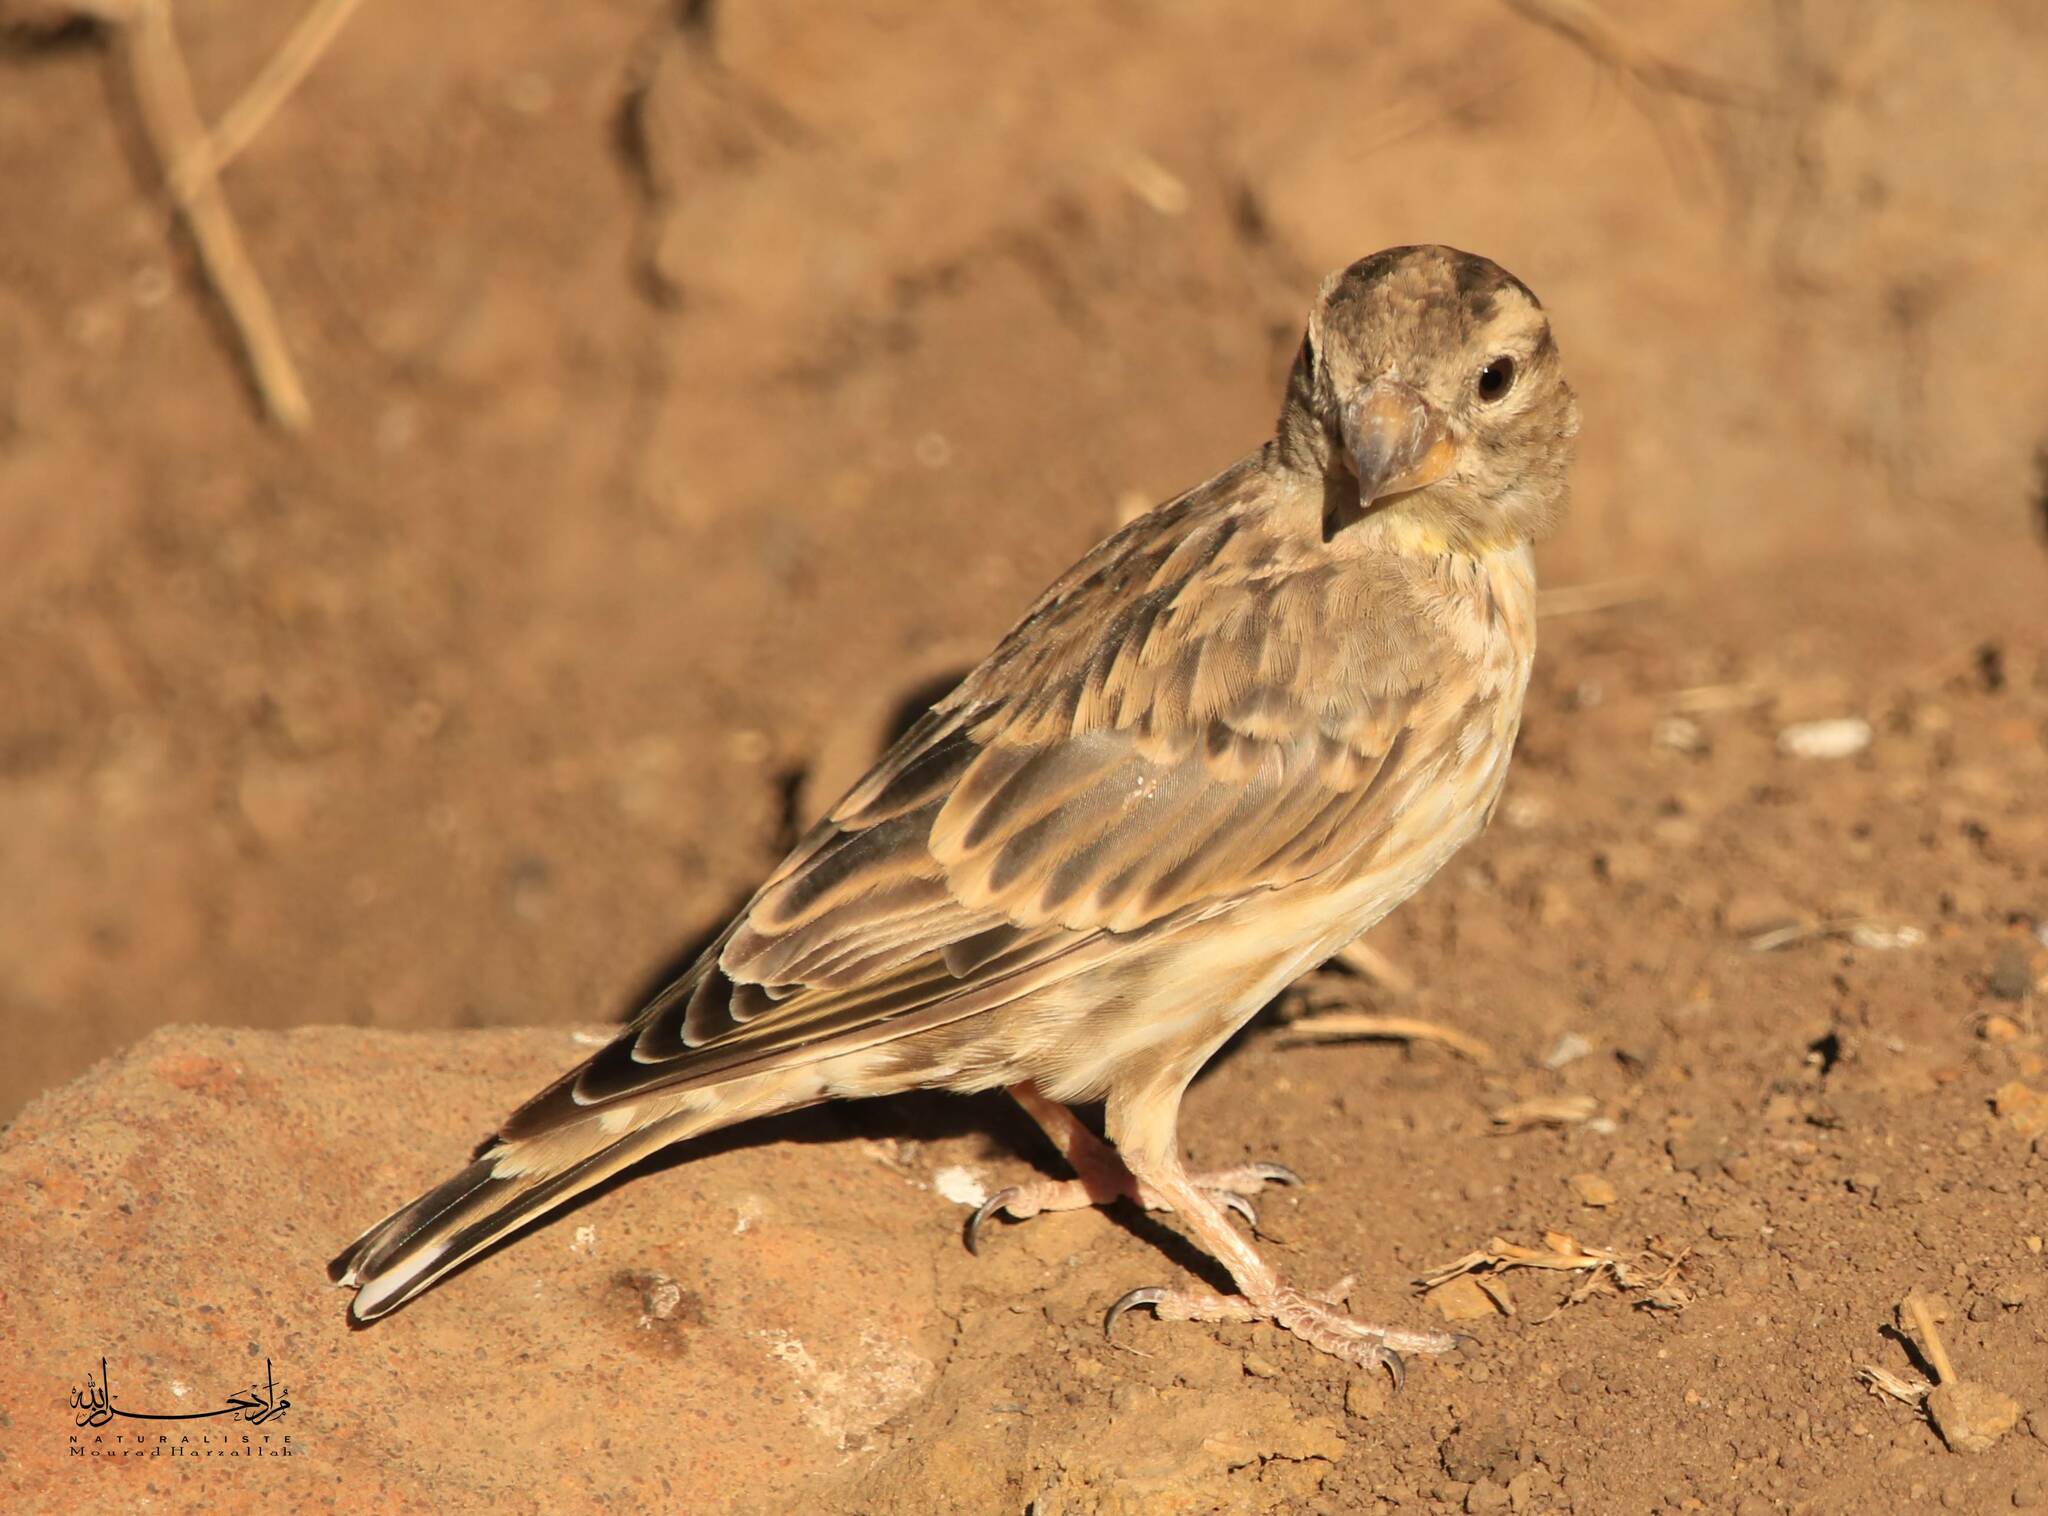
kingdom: Animalia
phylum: Chordata
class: Aves
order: Passeriformes
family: Passeridae
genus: Petronia
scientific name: Petronia petronia
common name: Rock sparrow
